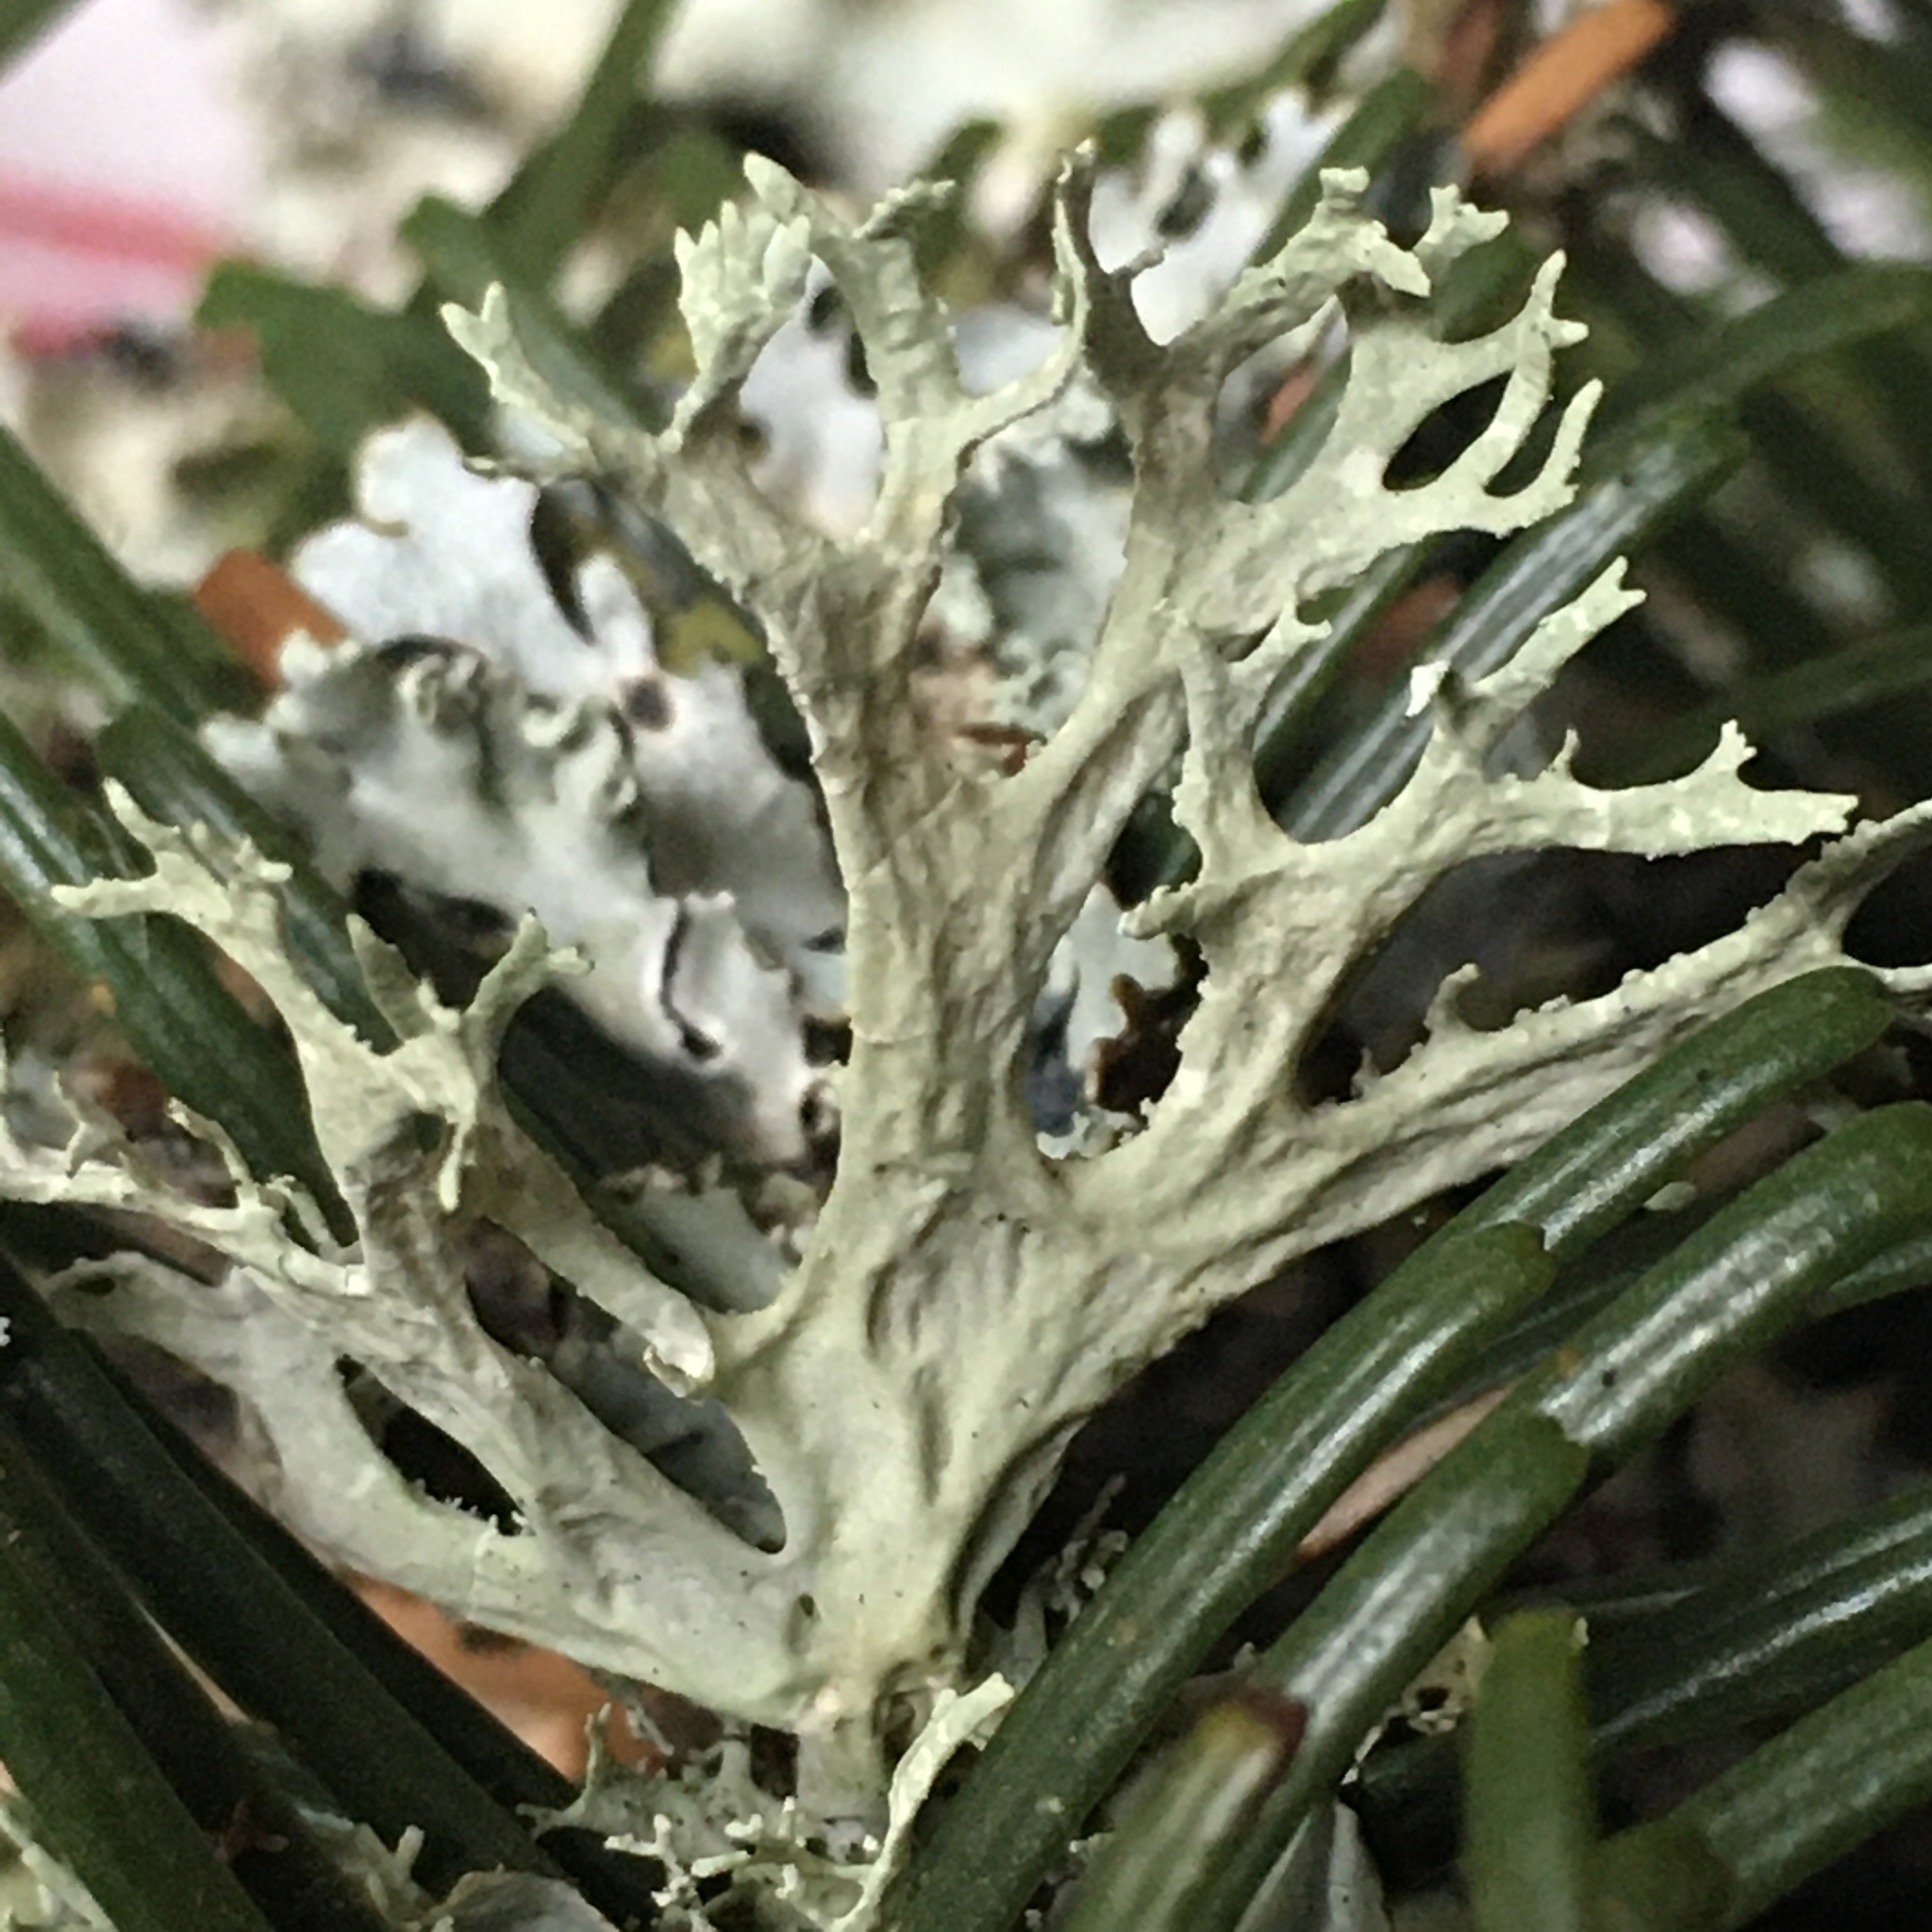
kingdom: Fungi
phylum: Ascomycota
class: Lecanoromycetes
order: Lecanorales
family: Parmeliaceae
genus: Evernia
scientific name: Evernia prunastri
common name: Oak moss
